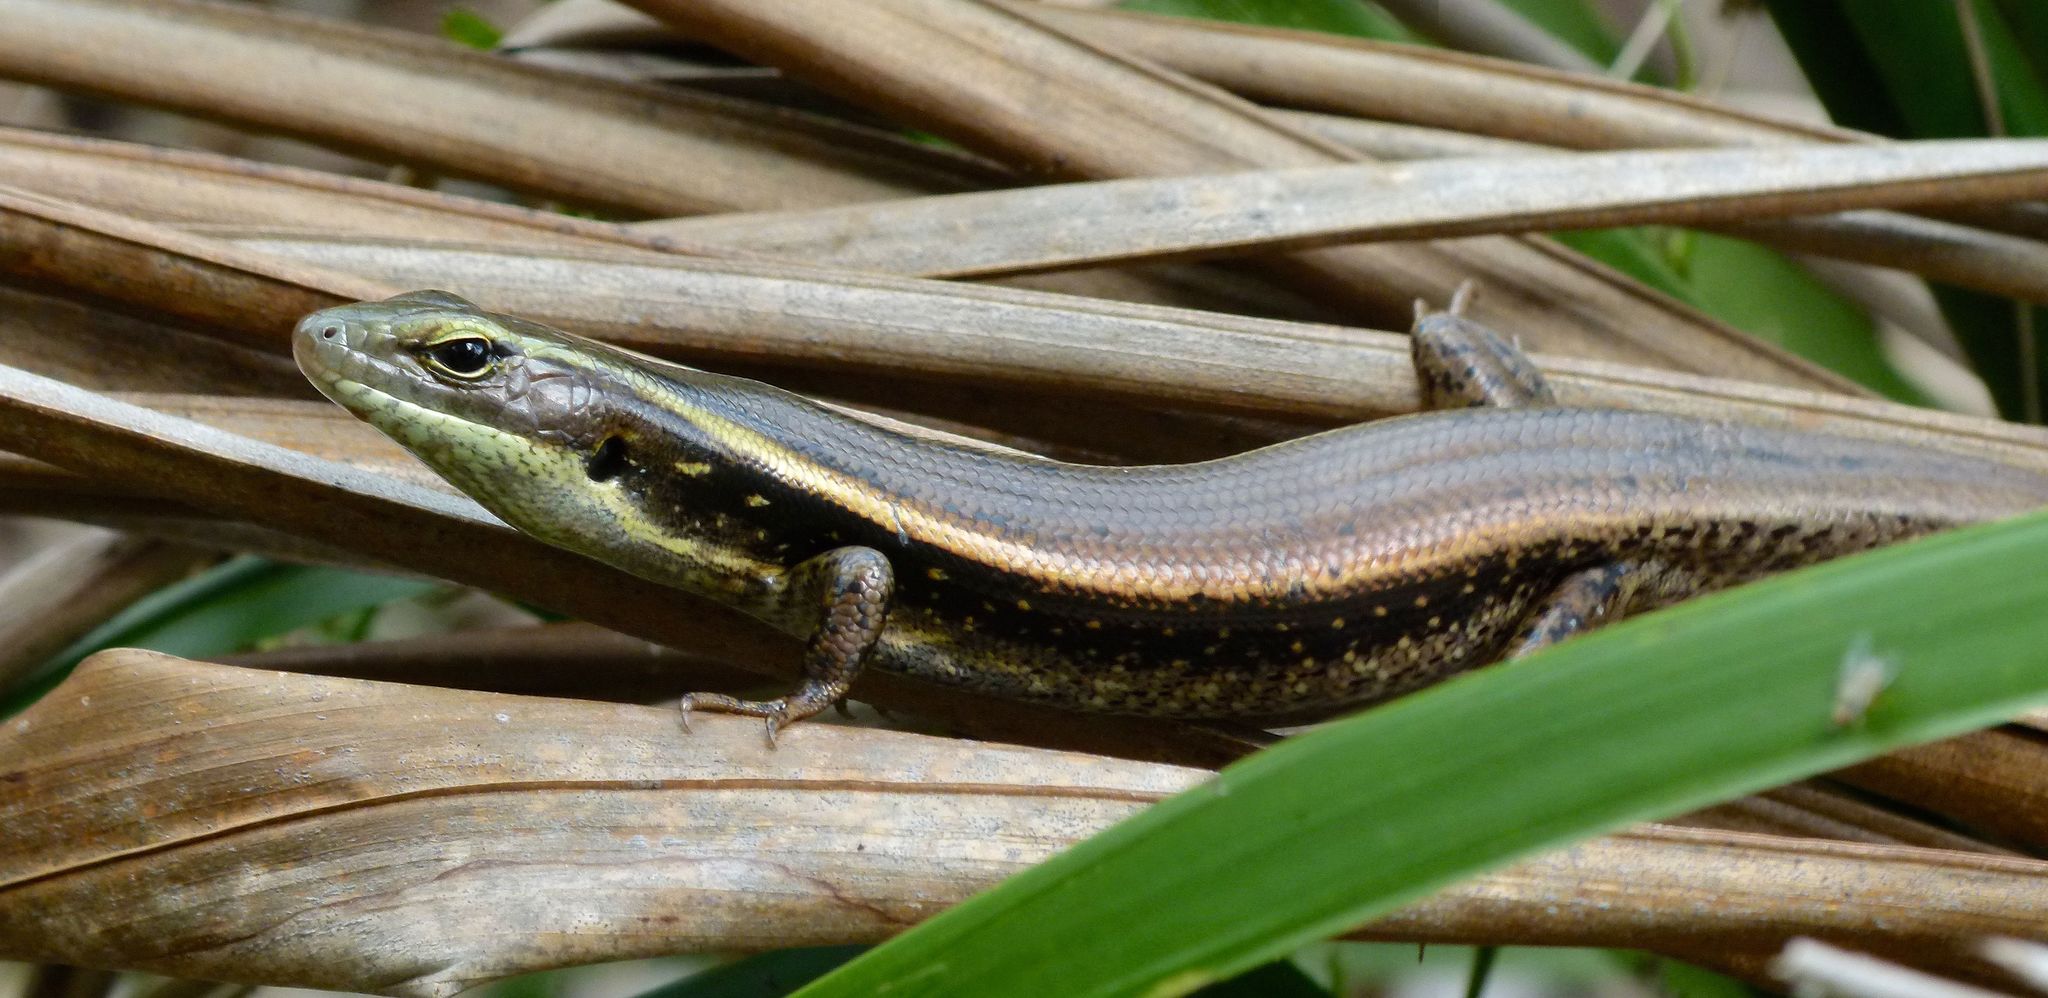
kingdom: Animalia
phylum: Chordata
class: Squamata
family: Scincidae
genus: Eulamprus
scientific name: Eulamprus quoyii
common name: Eastern water skink
